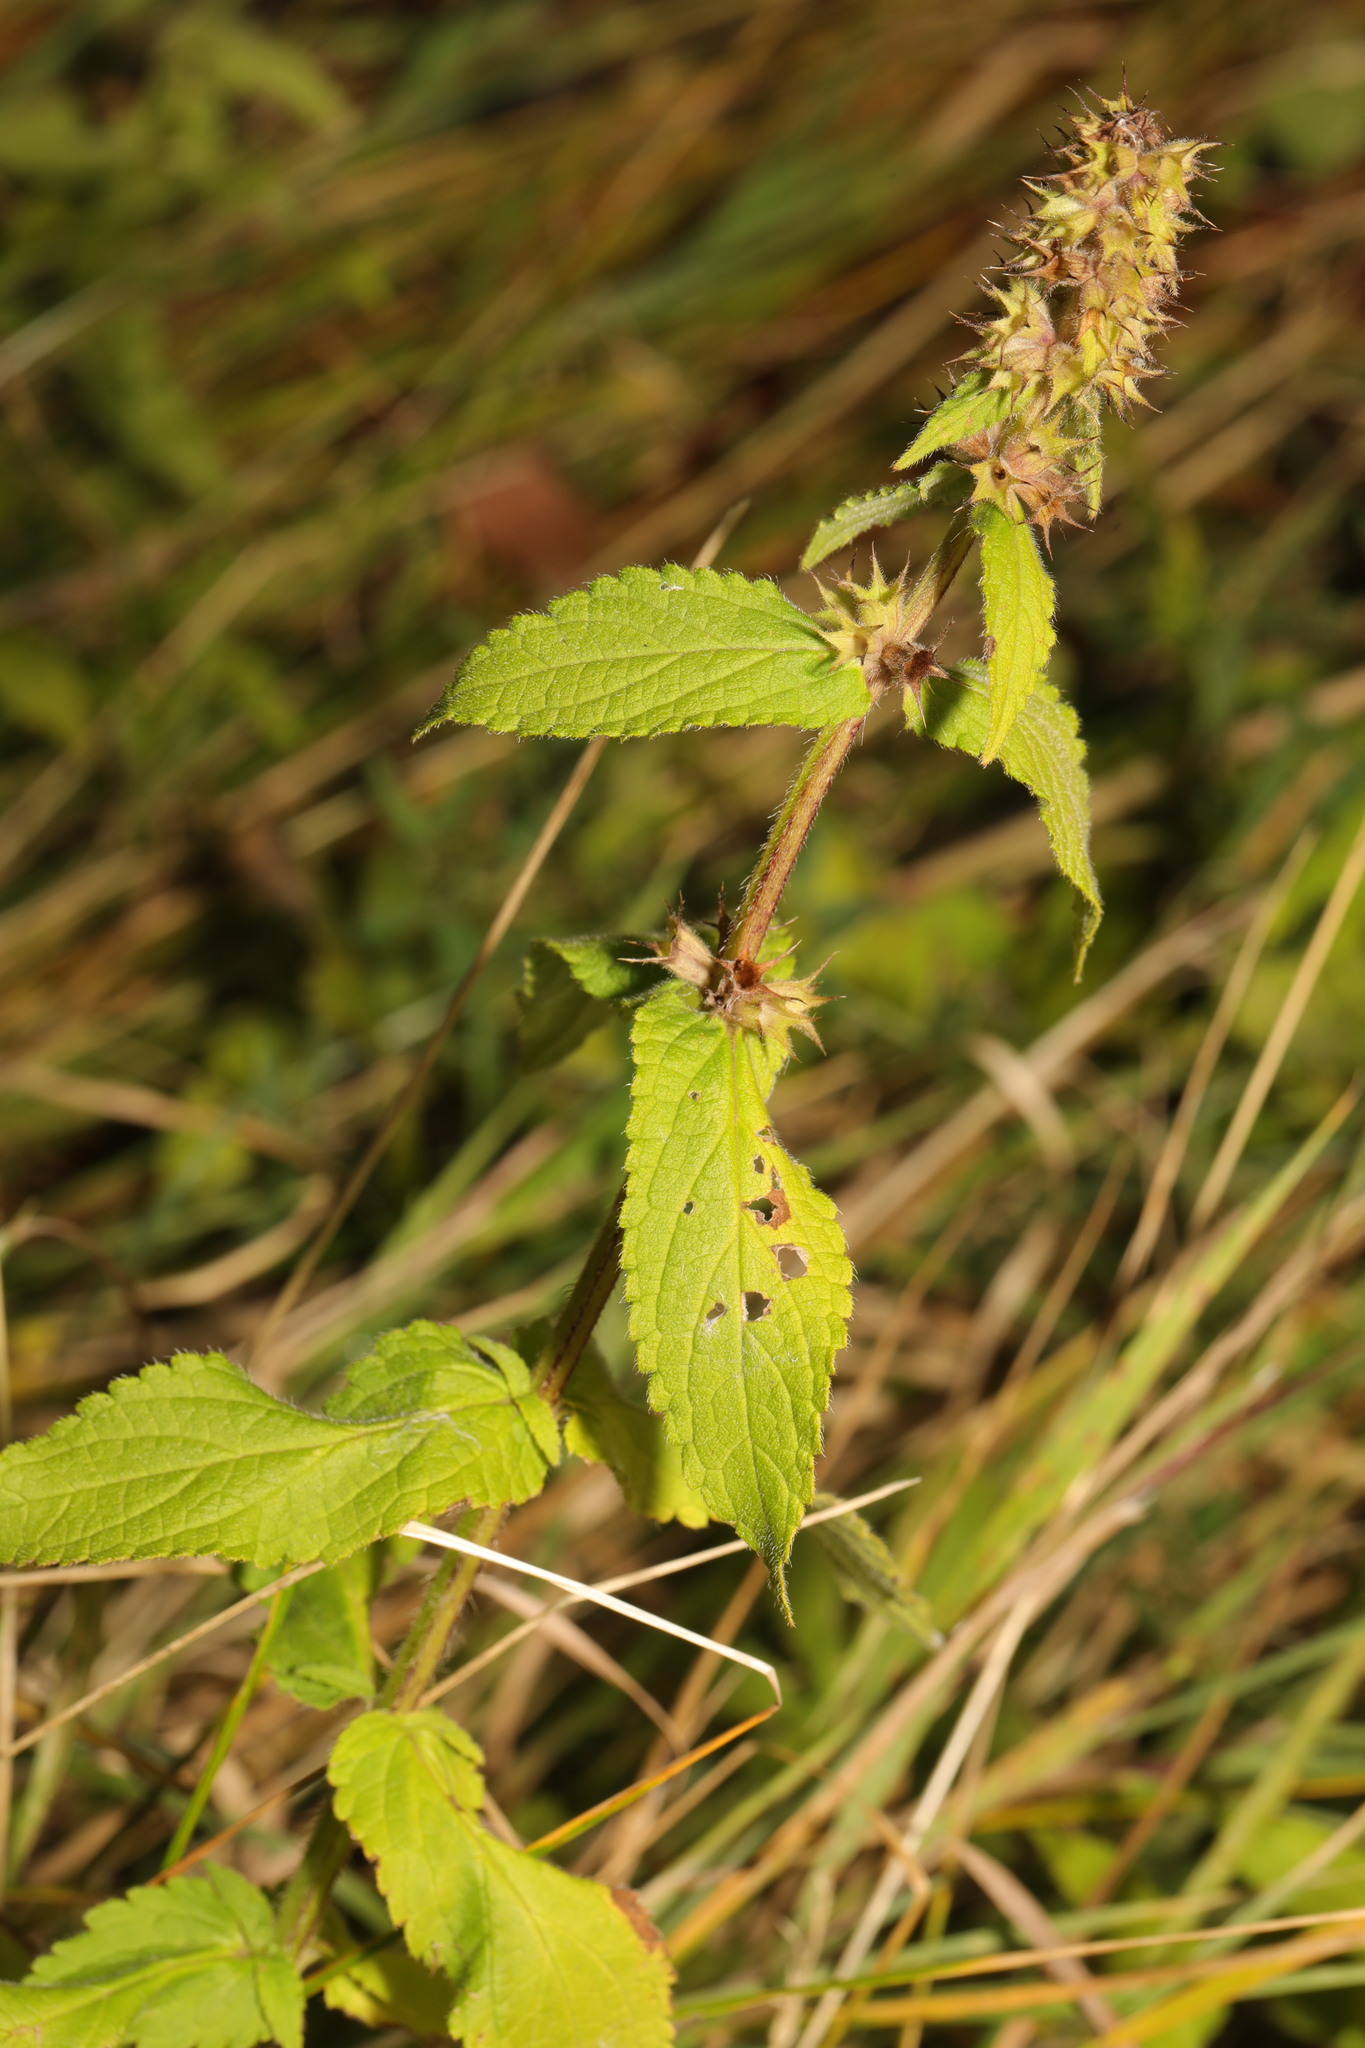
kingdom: Plantae
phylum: Tracheophyta
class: Magnoliopsida
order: Lamiales
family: Lamiaceae
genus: Stachys
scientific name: Stachys palustris
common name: Marsh woundwort
